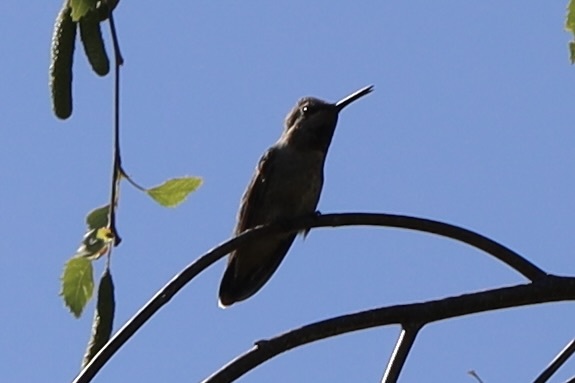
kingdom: Animalia
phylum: Chordata
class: Aves
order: Apodiformes
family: Trochilidae
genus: Calypte
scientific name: Calypte anna
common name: Anna's hummingbird
